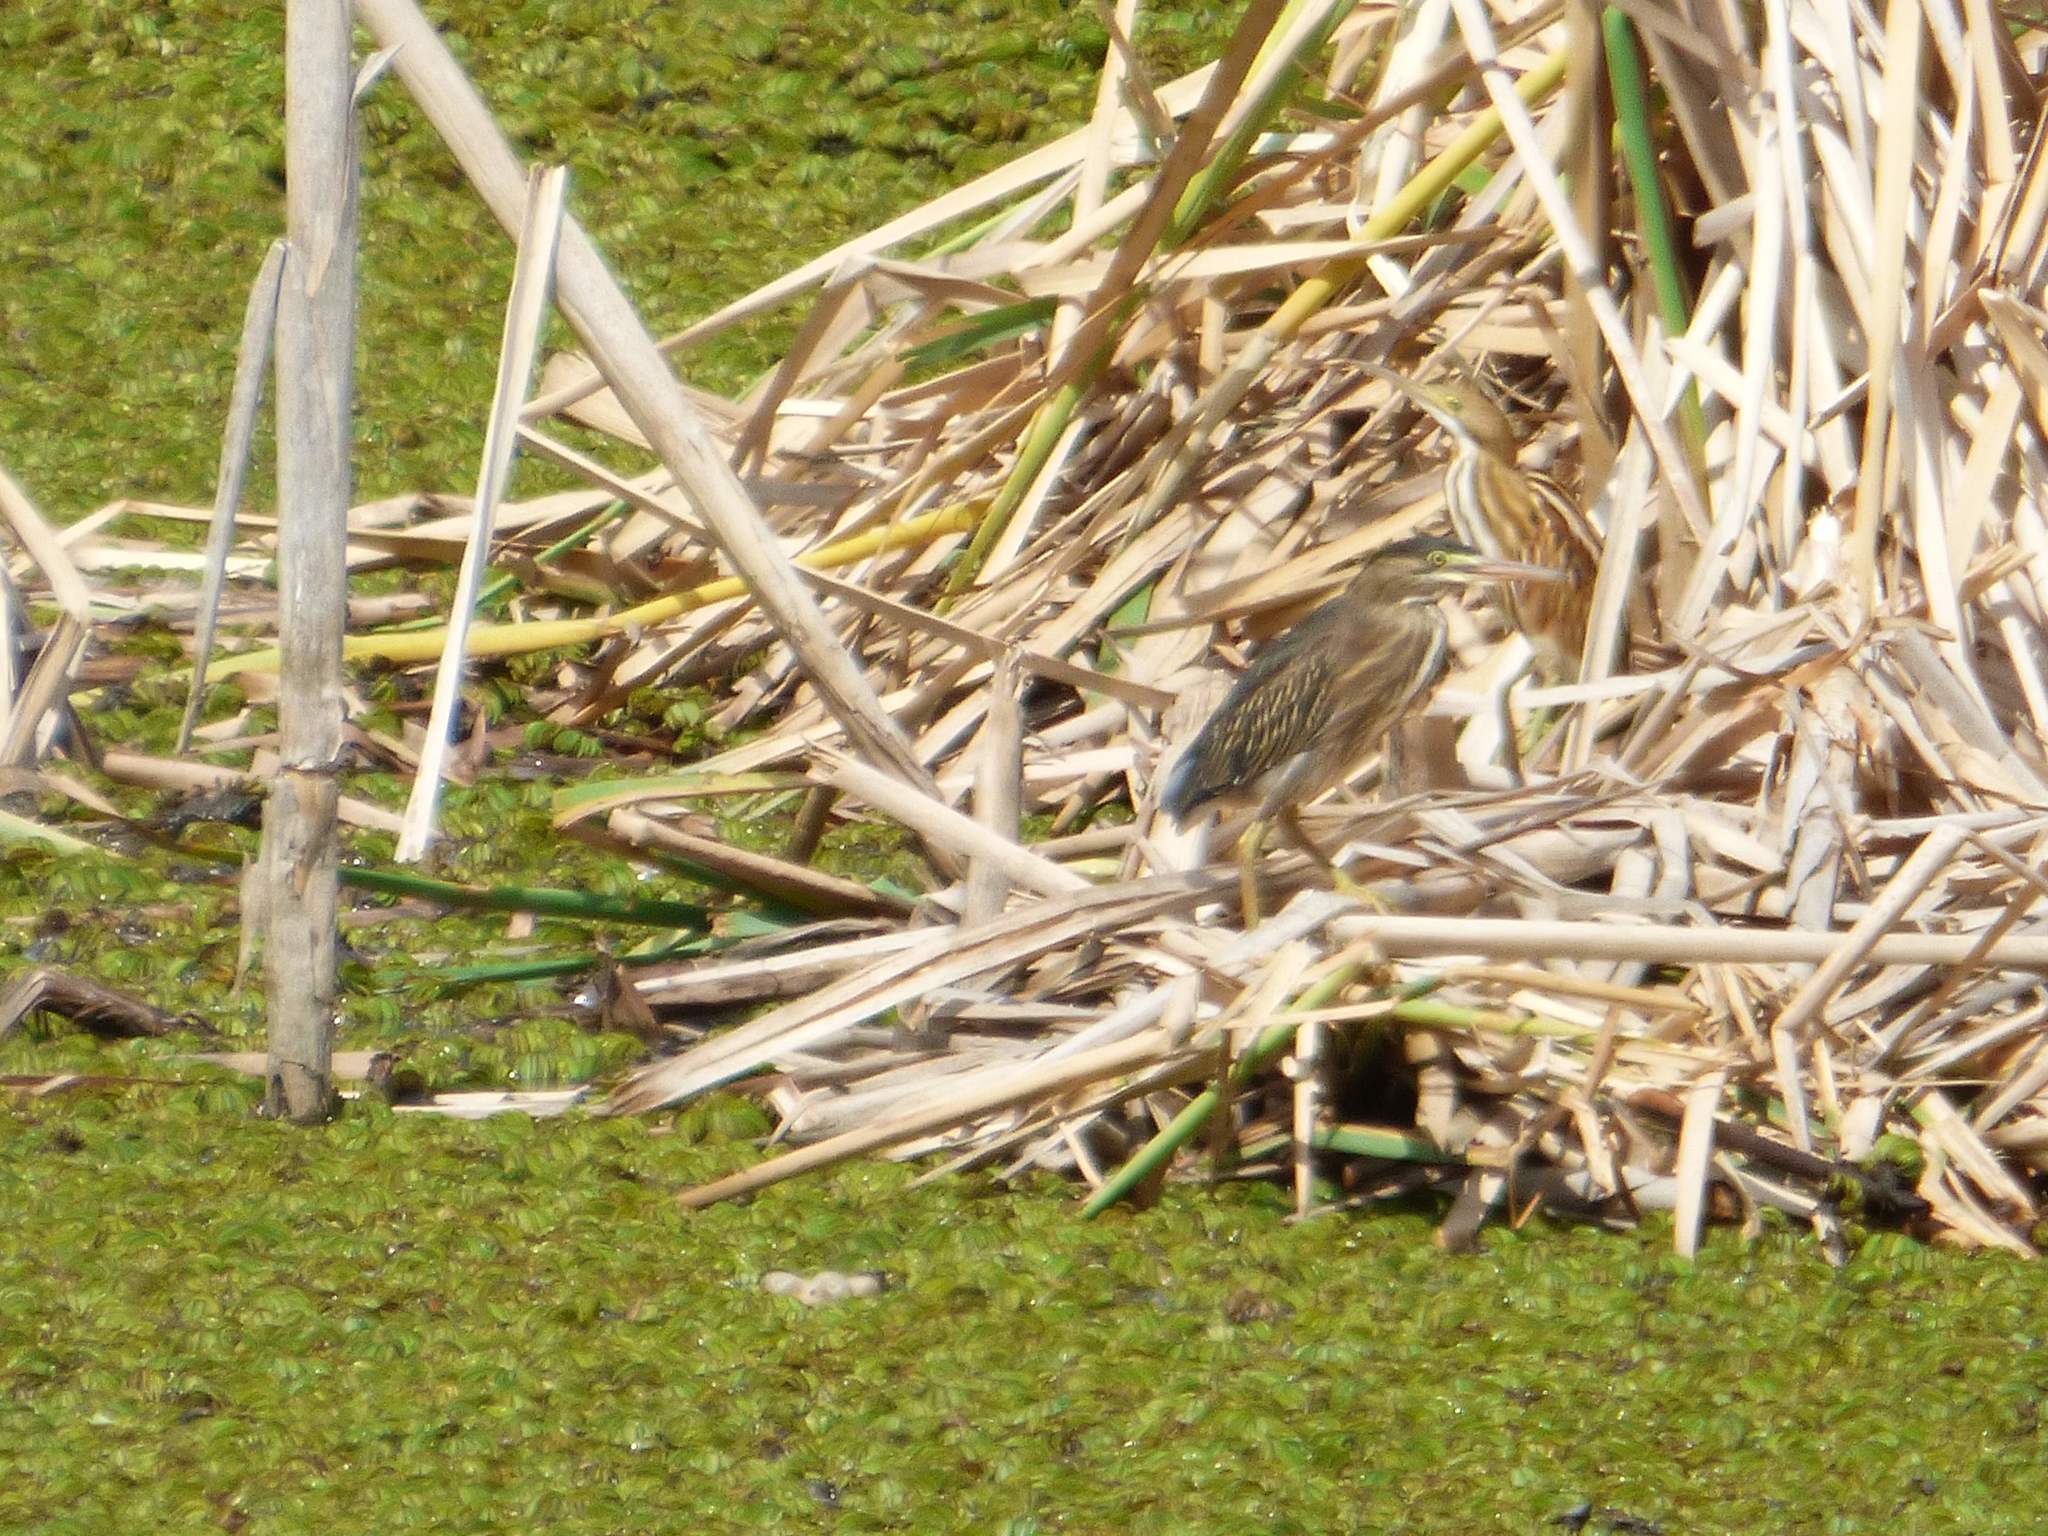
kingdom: Animalia
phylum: Chordata
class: Aves
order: Pelecaniformes
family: Ardeidae
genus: Ixobrychus
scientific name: Ixobrychus involucris
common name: Stripe-backed bittern
